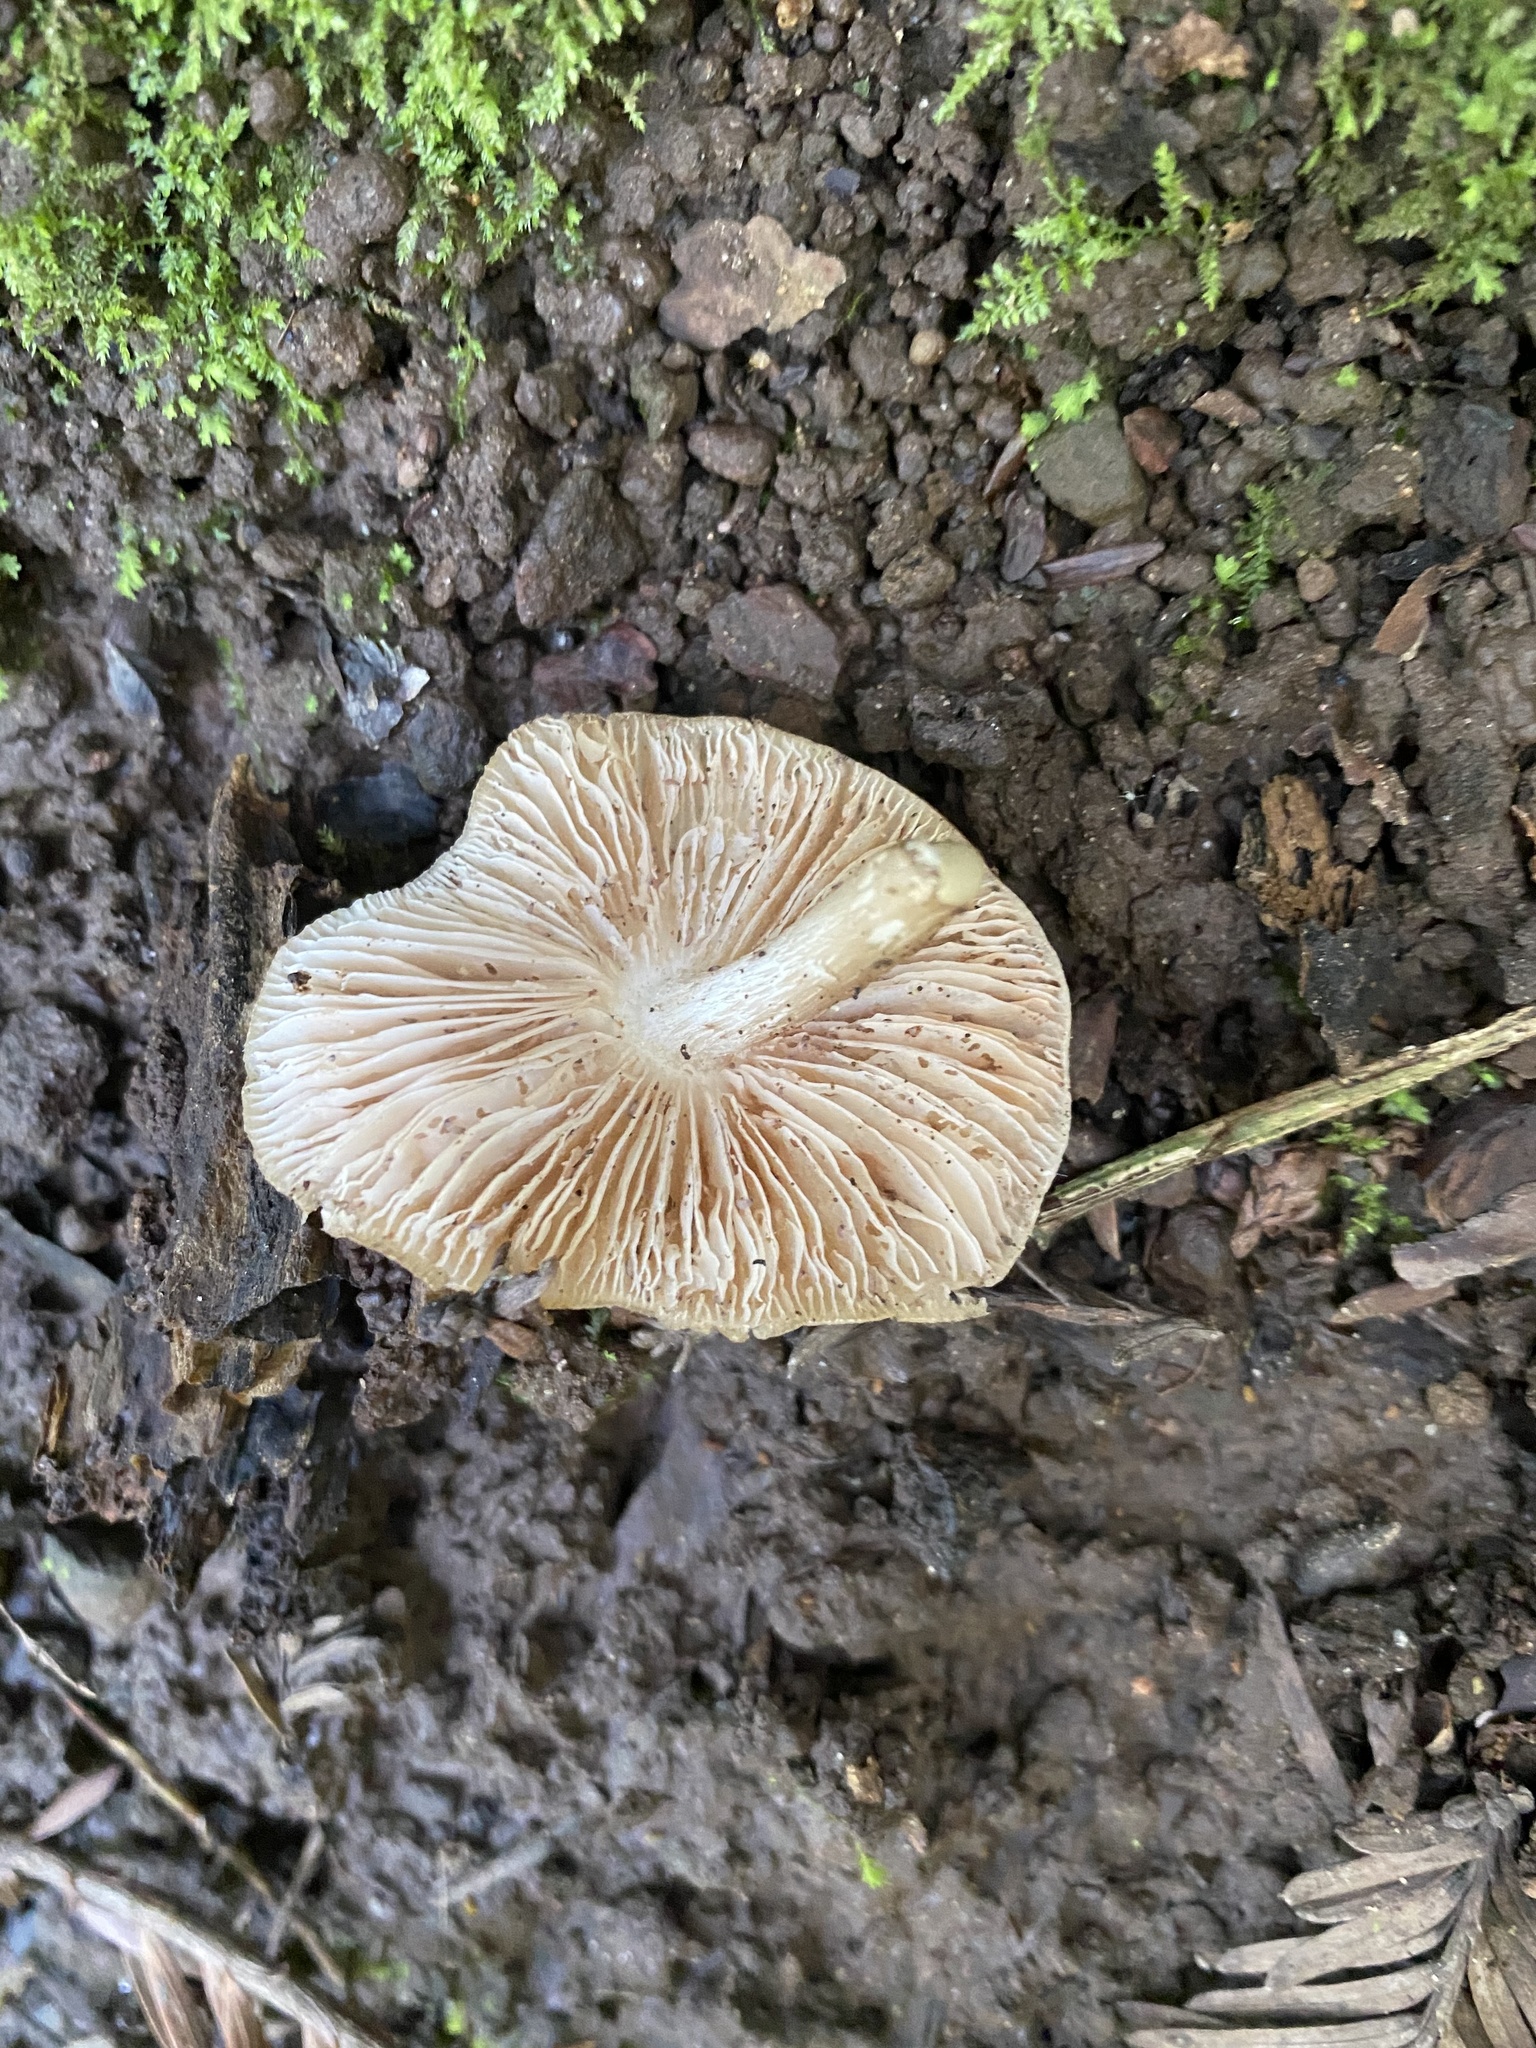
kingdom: Fungi
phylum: Basidiomycota
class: Agaricomycetes
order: Agaricales
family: Pluteaceae
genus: Pluteus
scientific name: Pluteus cervinus
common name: Deer shield
